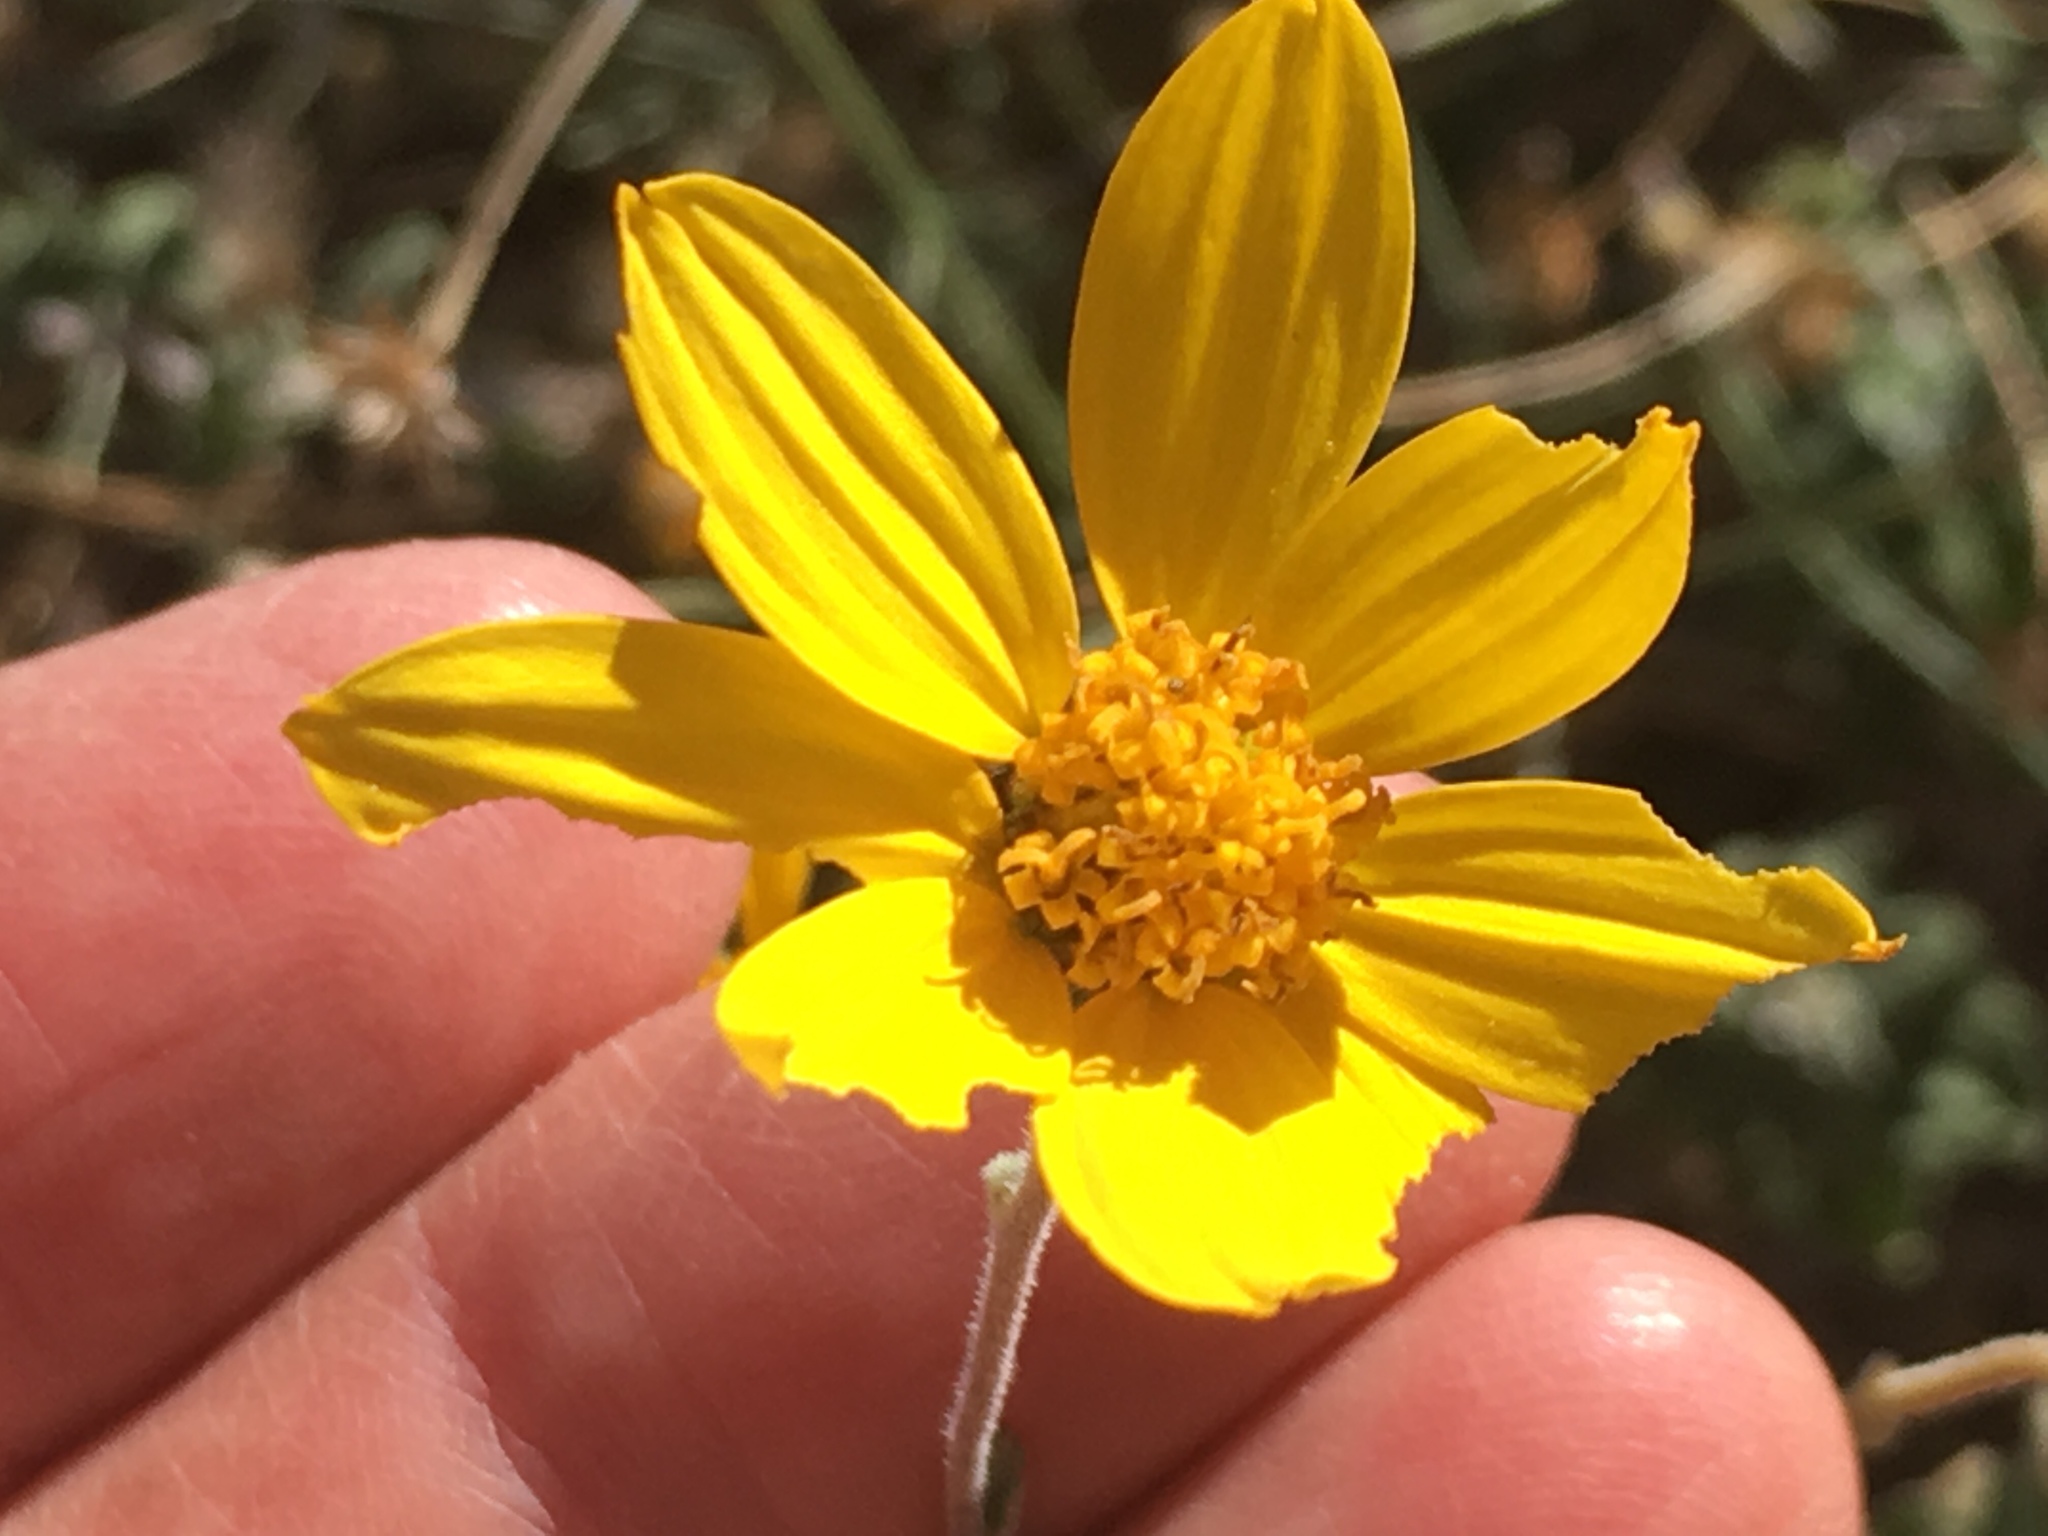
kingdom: Plantae
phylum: Tracheophyta
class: Magnoliopsida
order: Asterales
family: Asteraceae
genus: Bahiopsis
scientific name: Bahiopsis parishii
